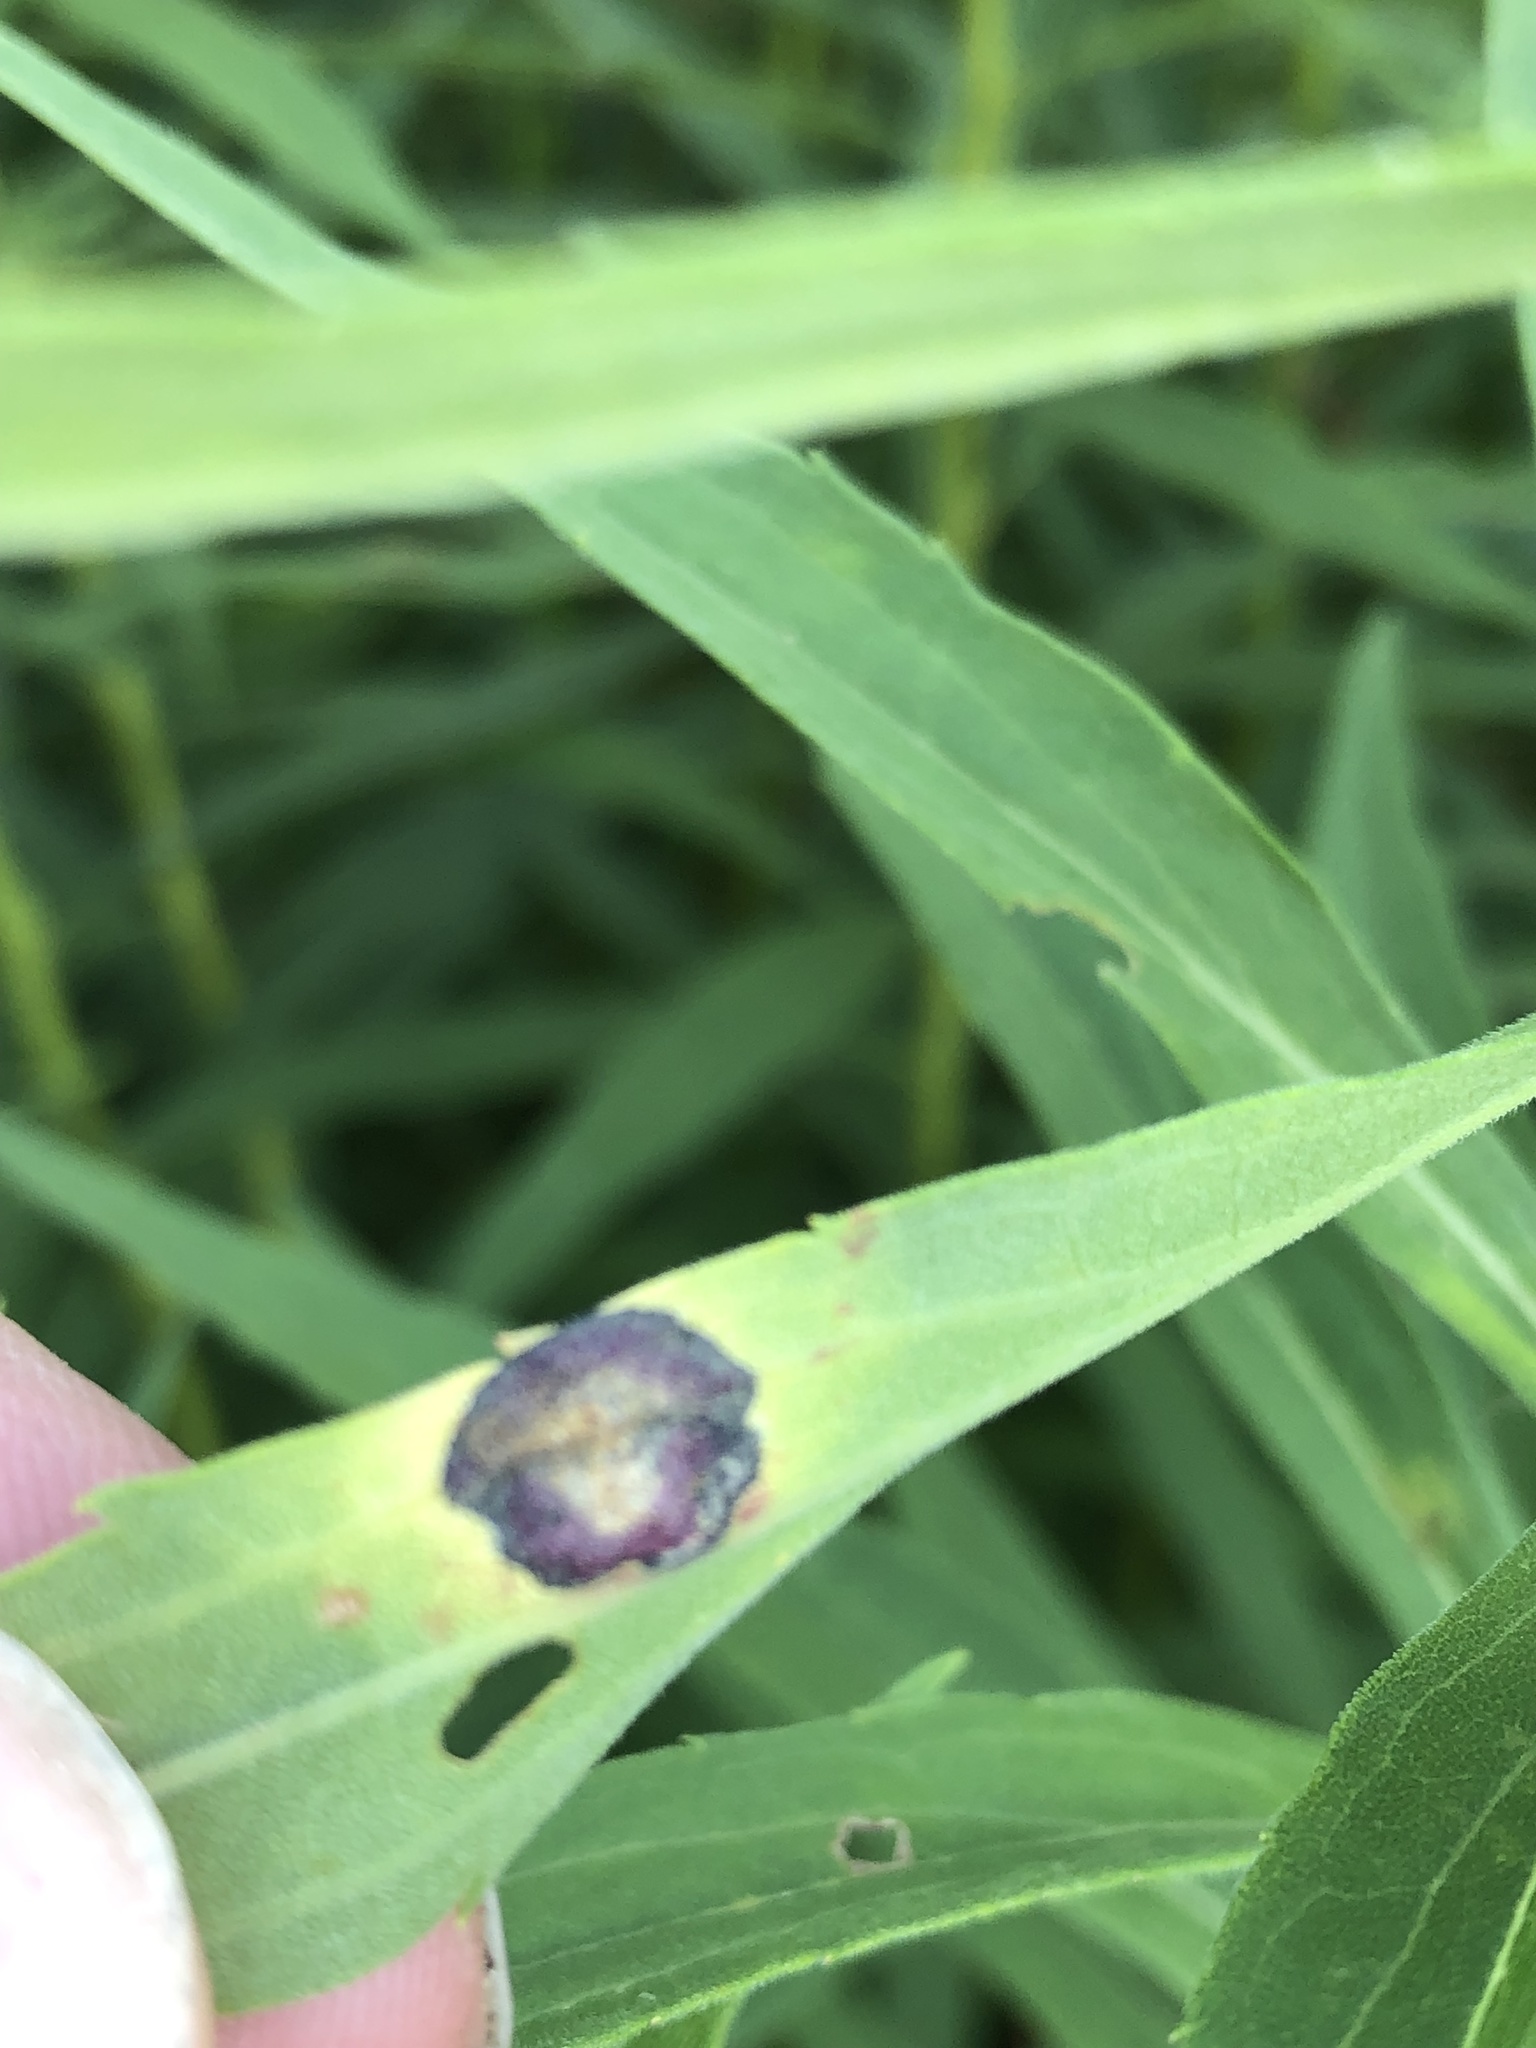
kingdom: Animalia
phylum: Arthropoda
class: Insecta
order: Diptera
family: Cecidomyiidae
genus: Asteromyia
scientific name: Asteromyia carbonifera
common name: Carbonifera goldenrod gall midge
